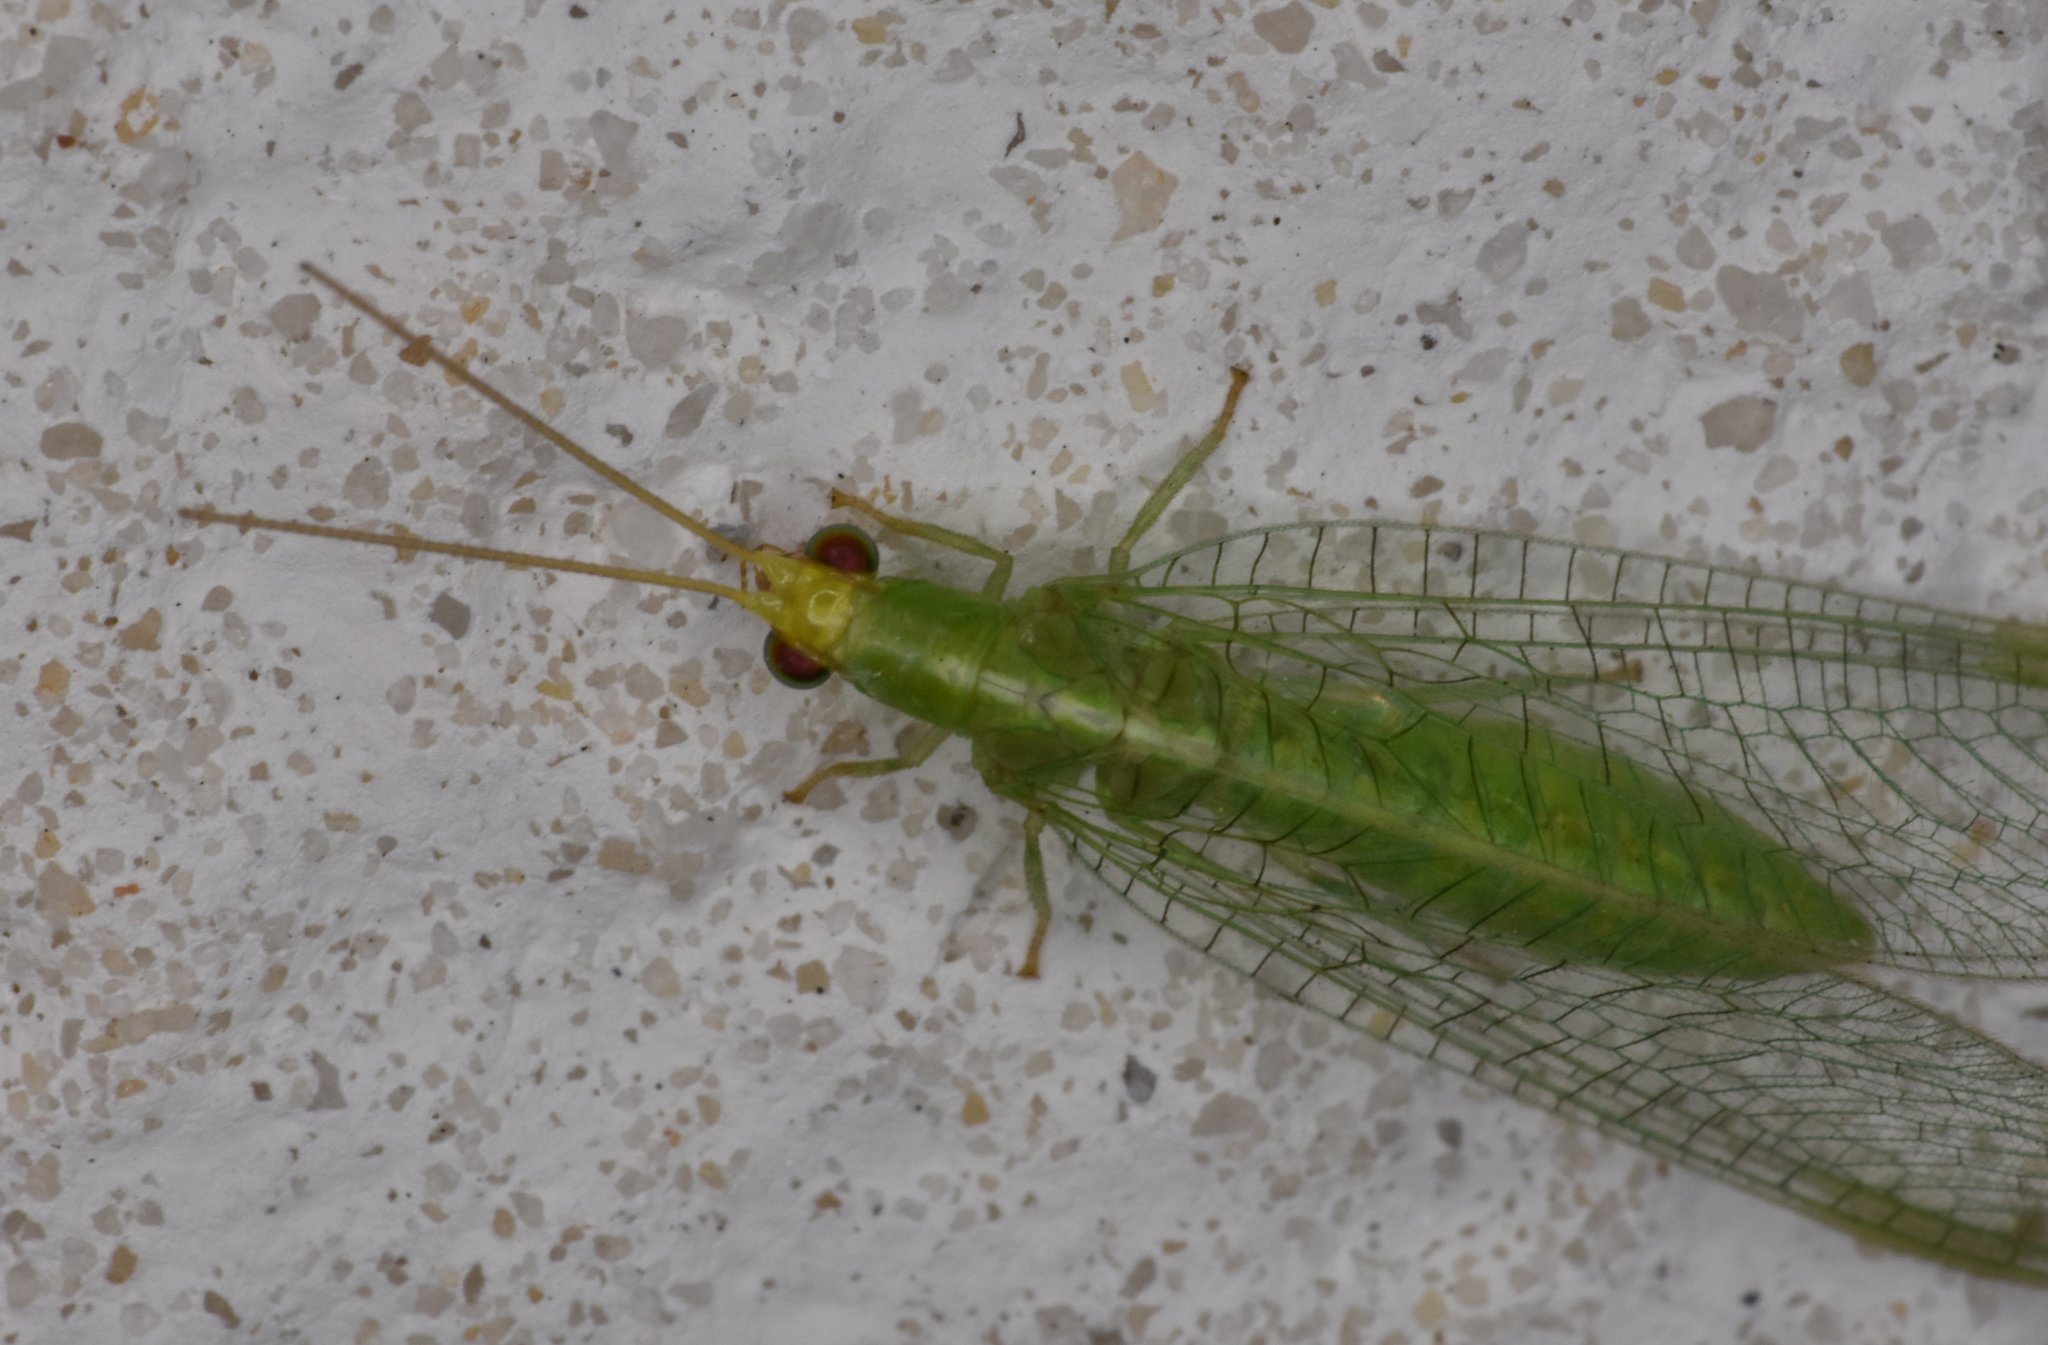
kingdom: Animalia
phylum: Arthropoda
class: Insecta
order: Neuroptera
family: Chrysopidae
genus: Chrysopodes
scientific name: Chrysopodes collaris
